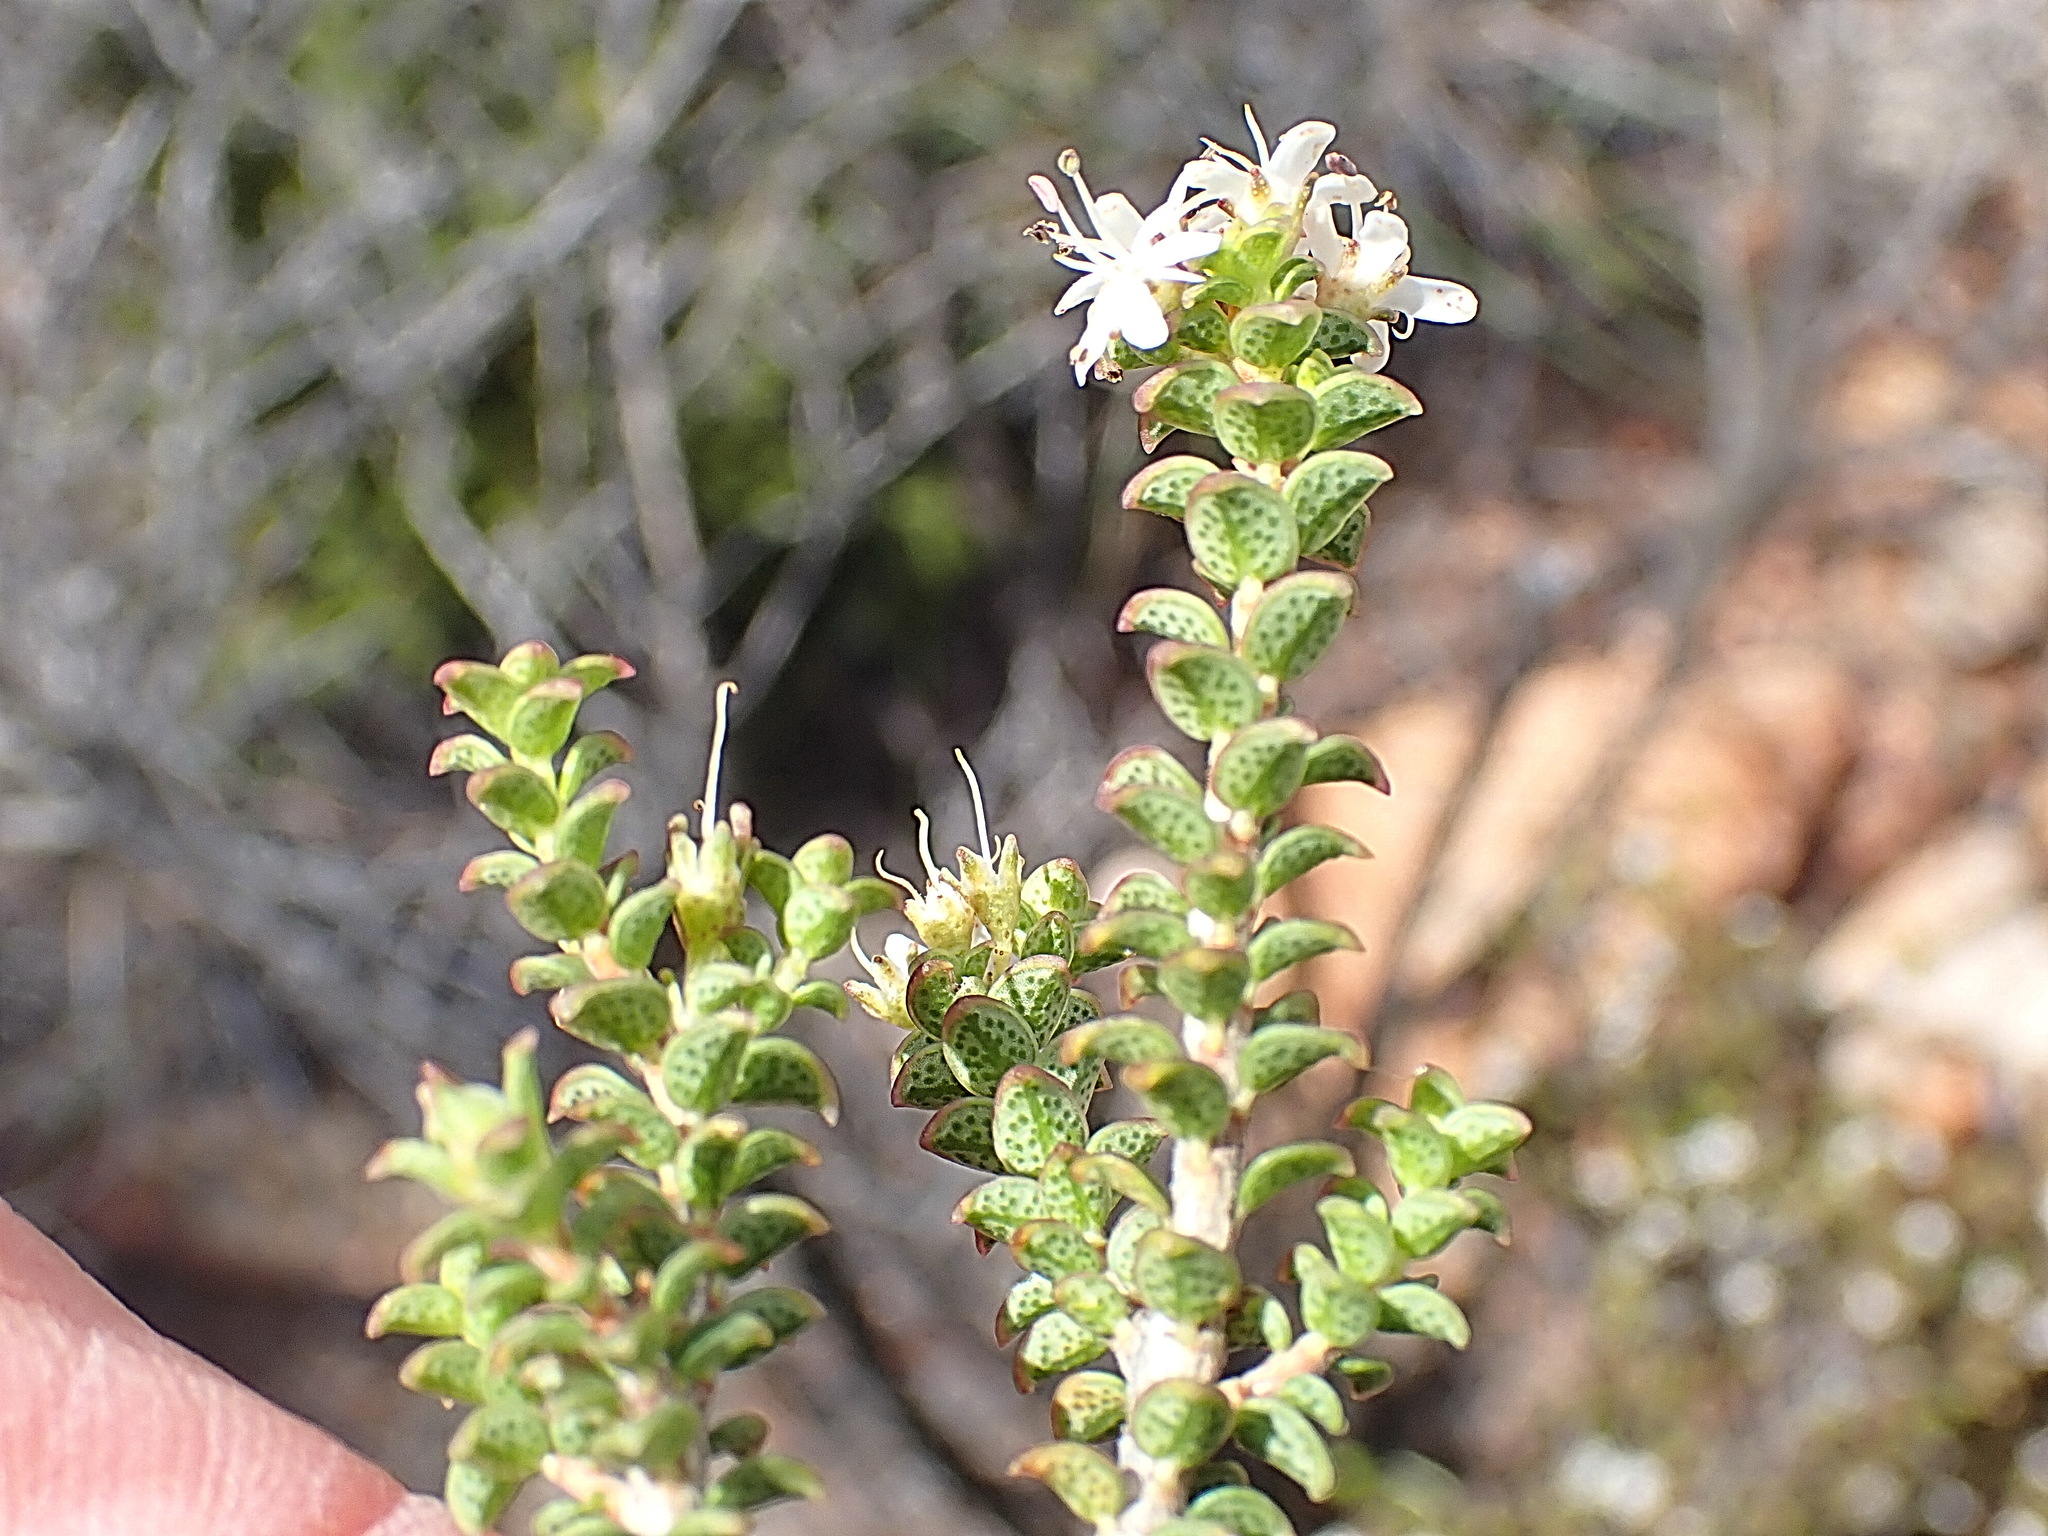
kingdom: Plantae
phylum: Tracheophyta
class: Magnoliopsida
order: Sapindales
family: Rutaceae
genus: Agathosma
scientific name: Agathosma recurvifolia
